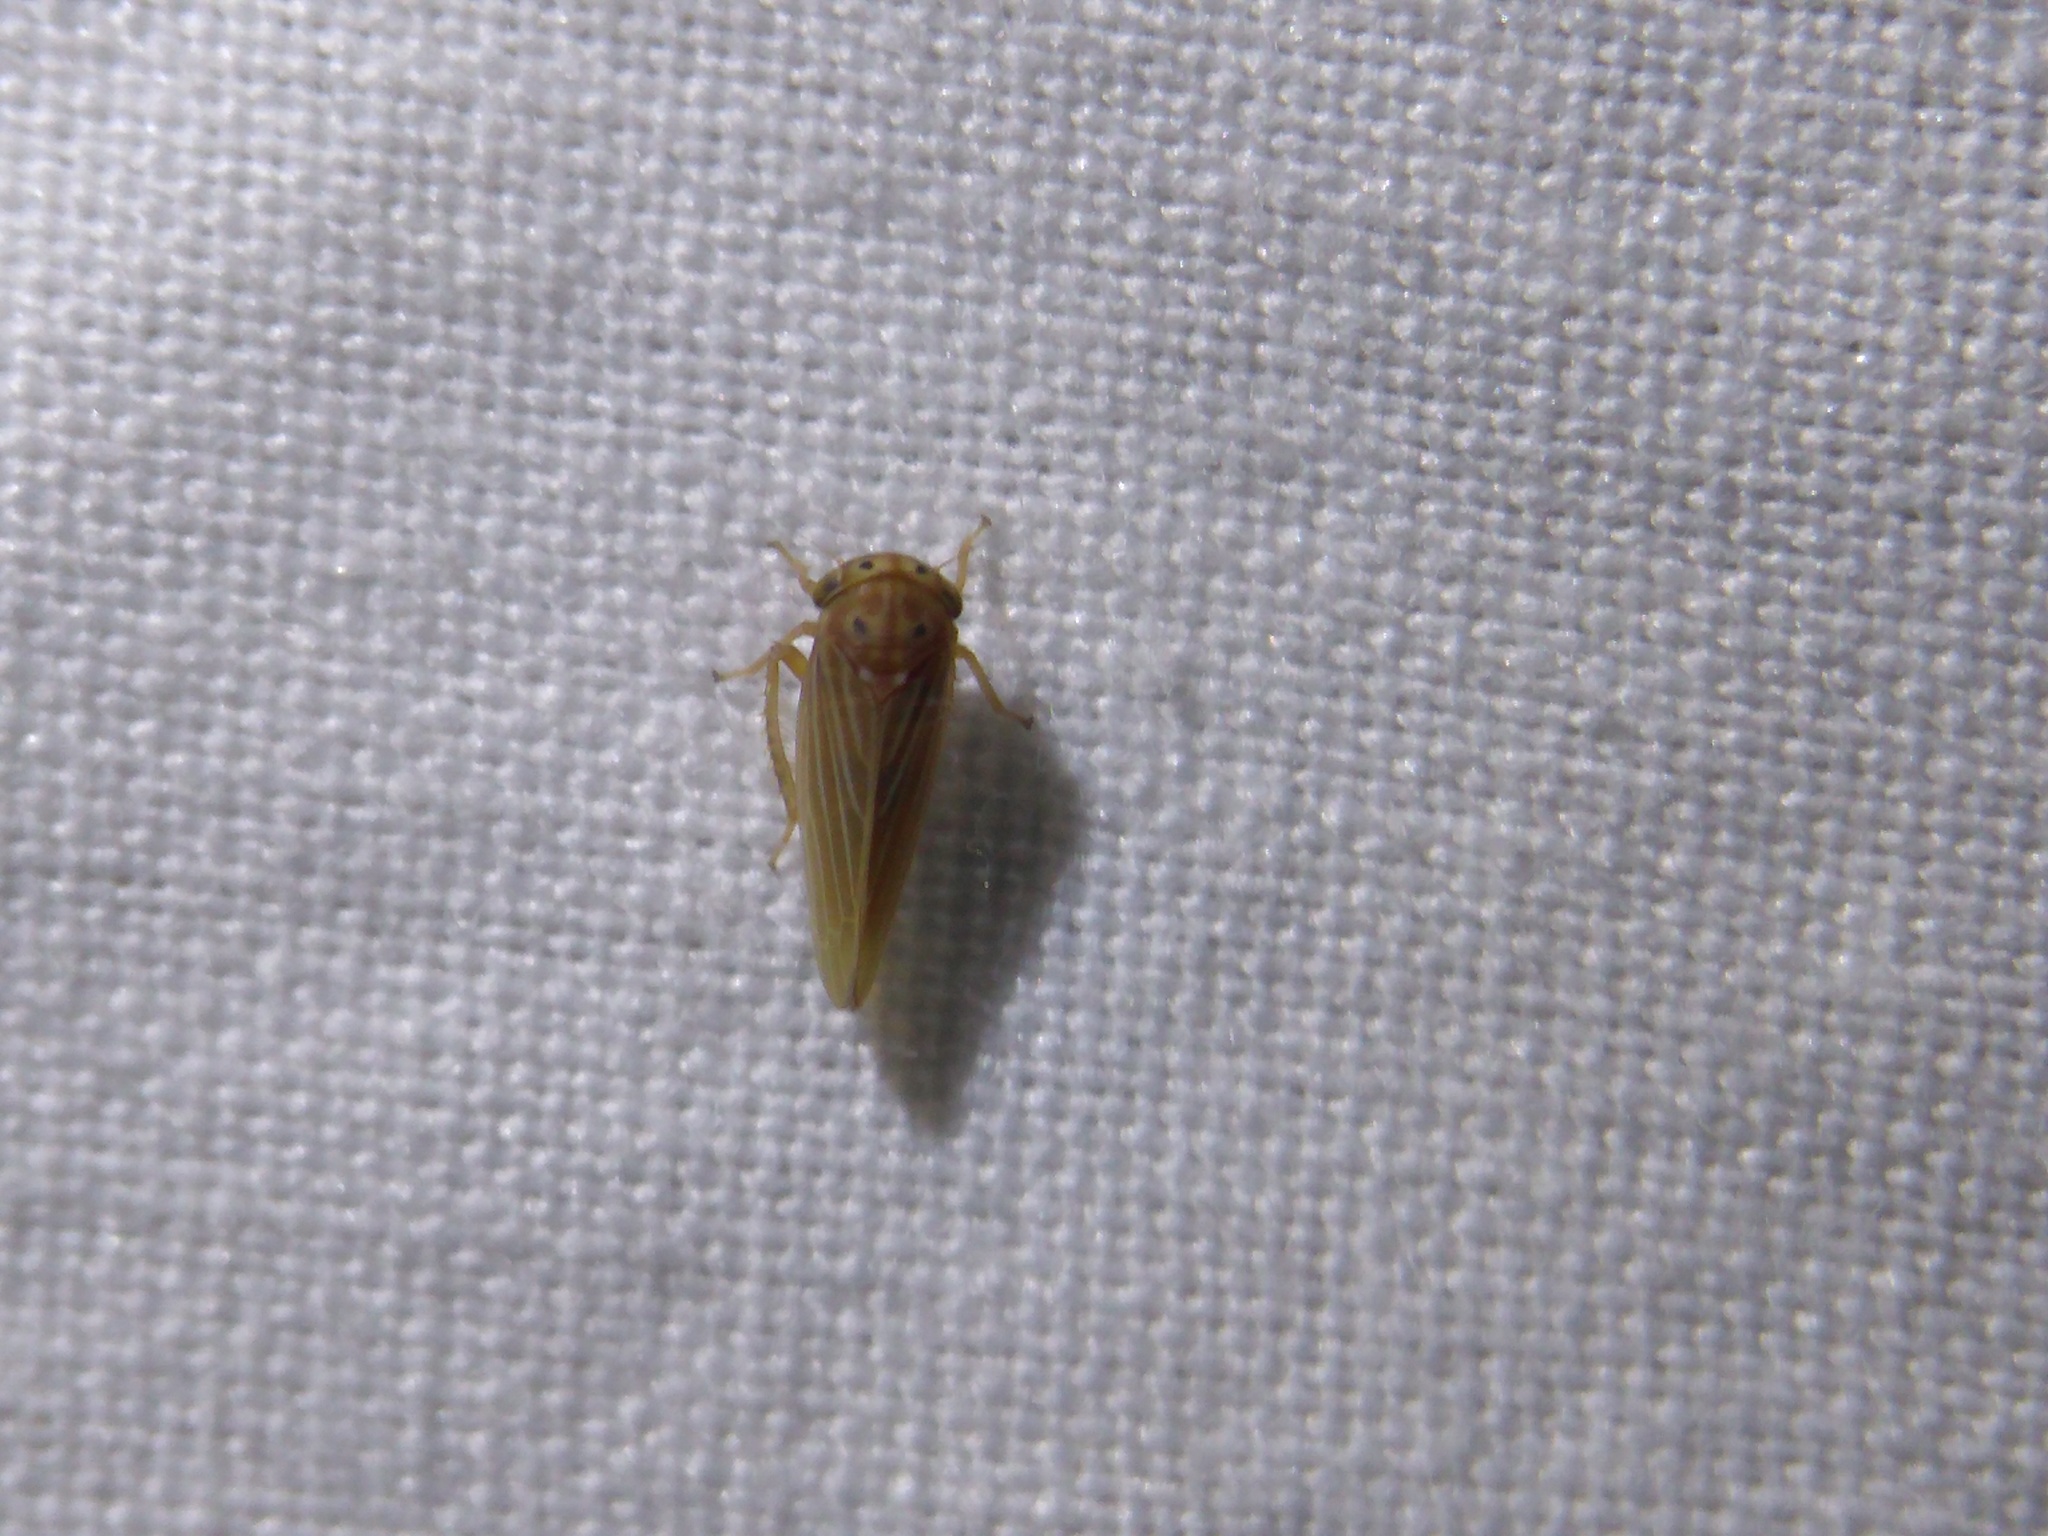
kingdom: Animalia
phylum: Arthropoda
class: Insecta
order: Hemiptera
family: Cicadellidae
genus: Agallia
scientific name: Agallia constricta
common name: The constricted leafhopper
